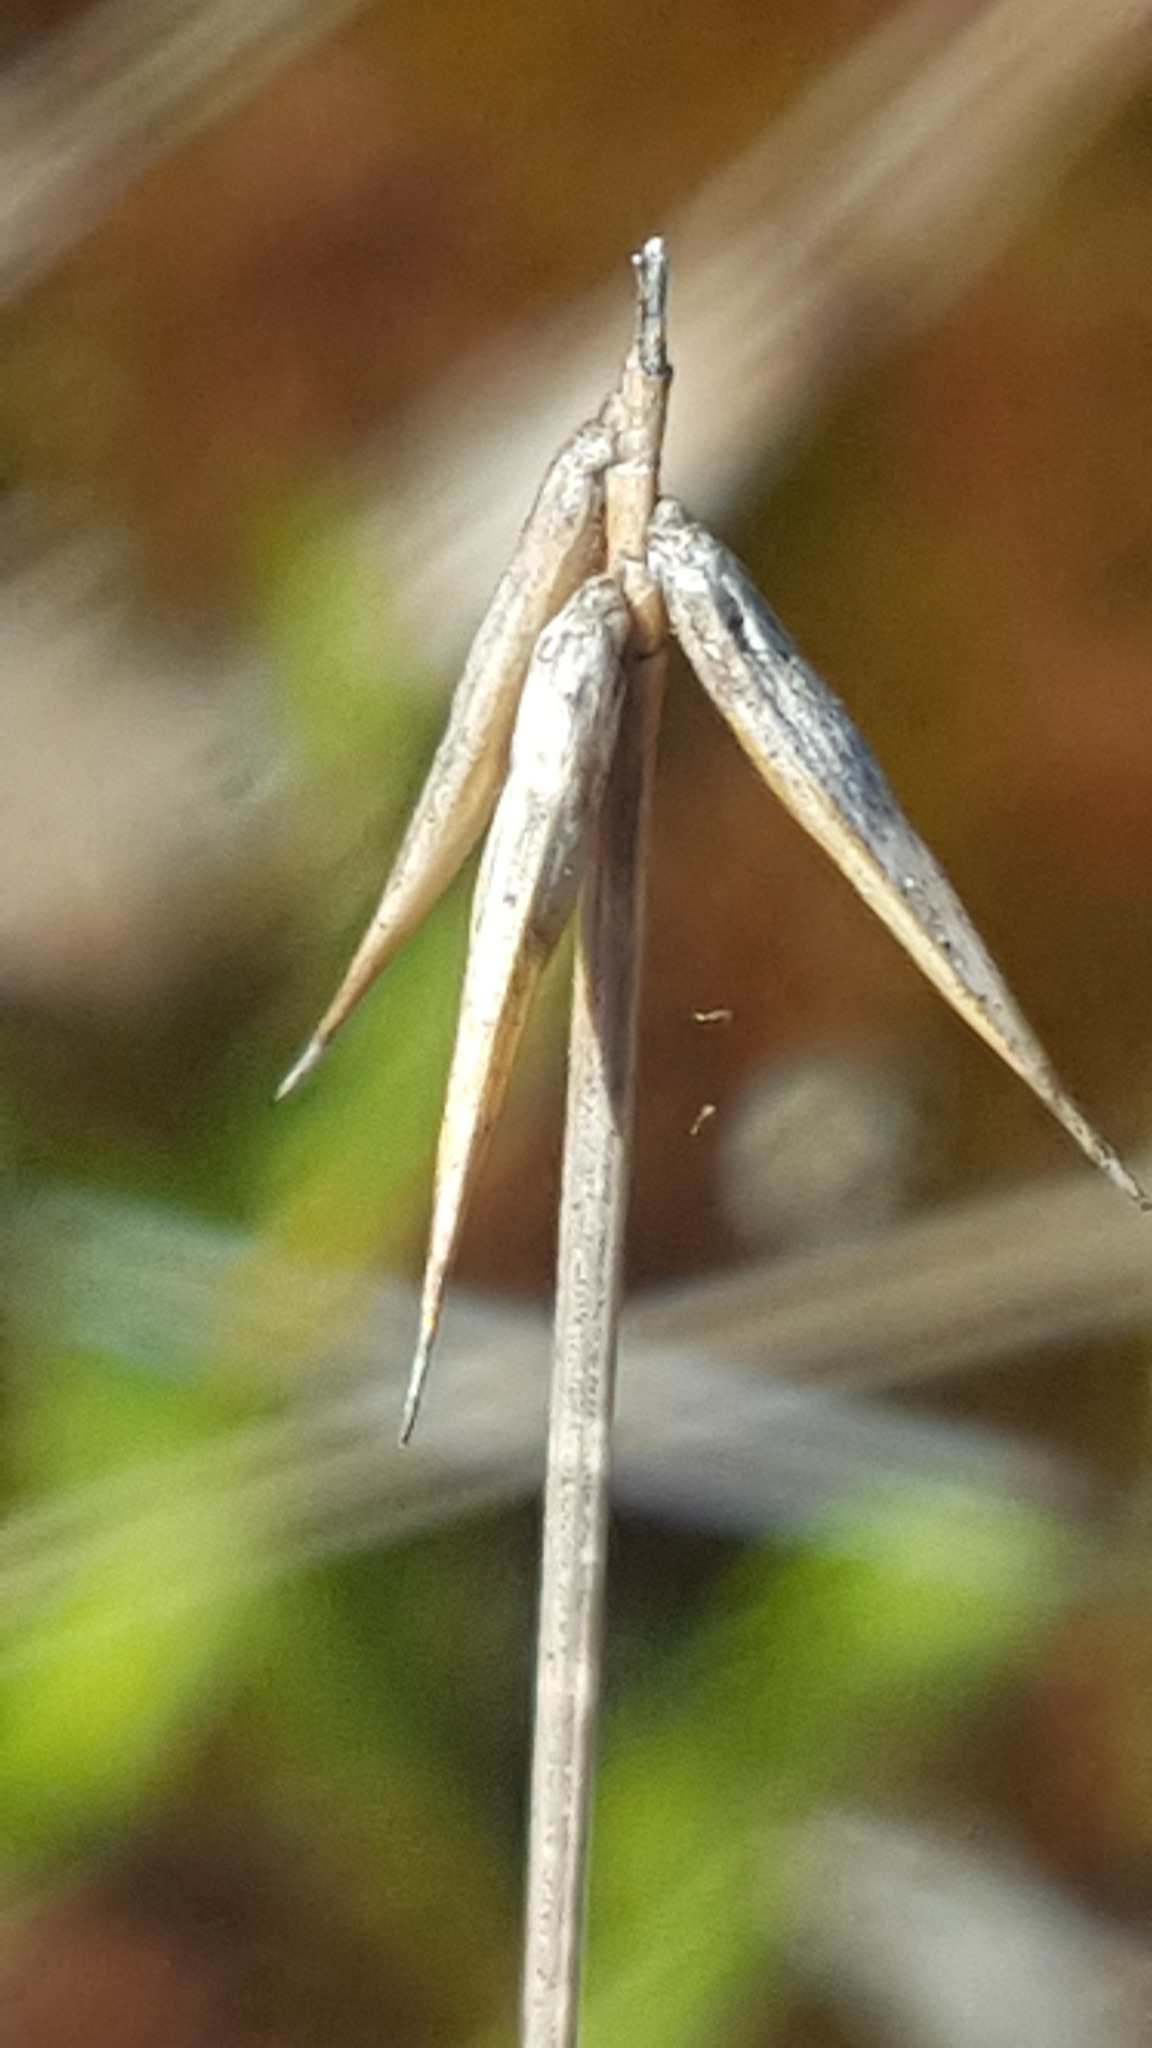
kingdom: Plantae
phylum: Tracheophyta
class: Liliopsida
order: Poales
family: Cyperaceae
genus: Carex
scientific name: Carex pauciflora
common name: Few-flowered sedge
